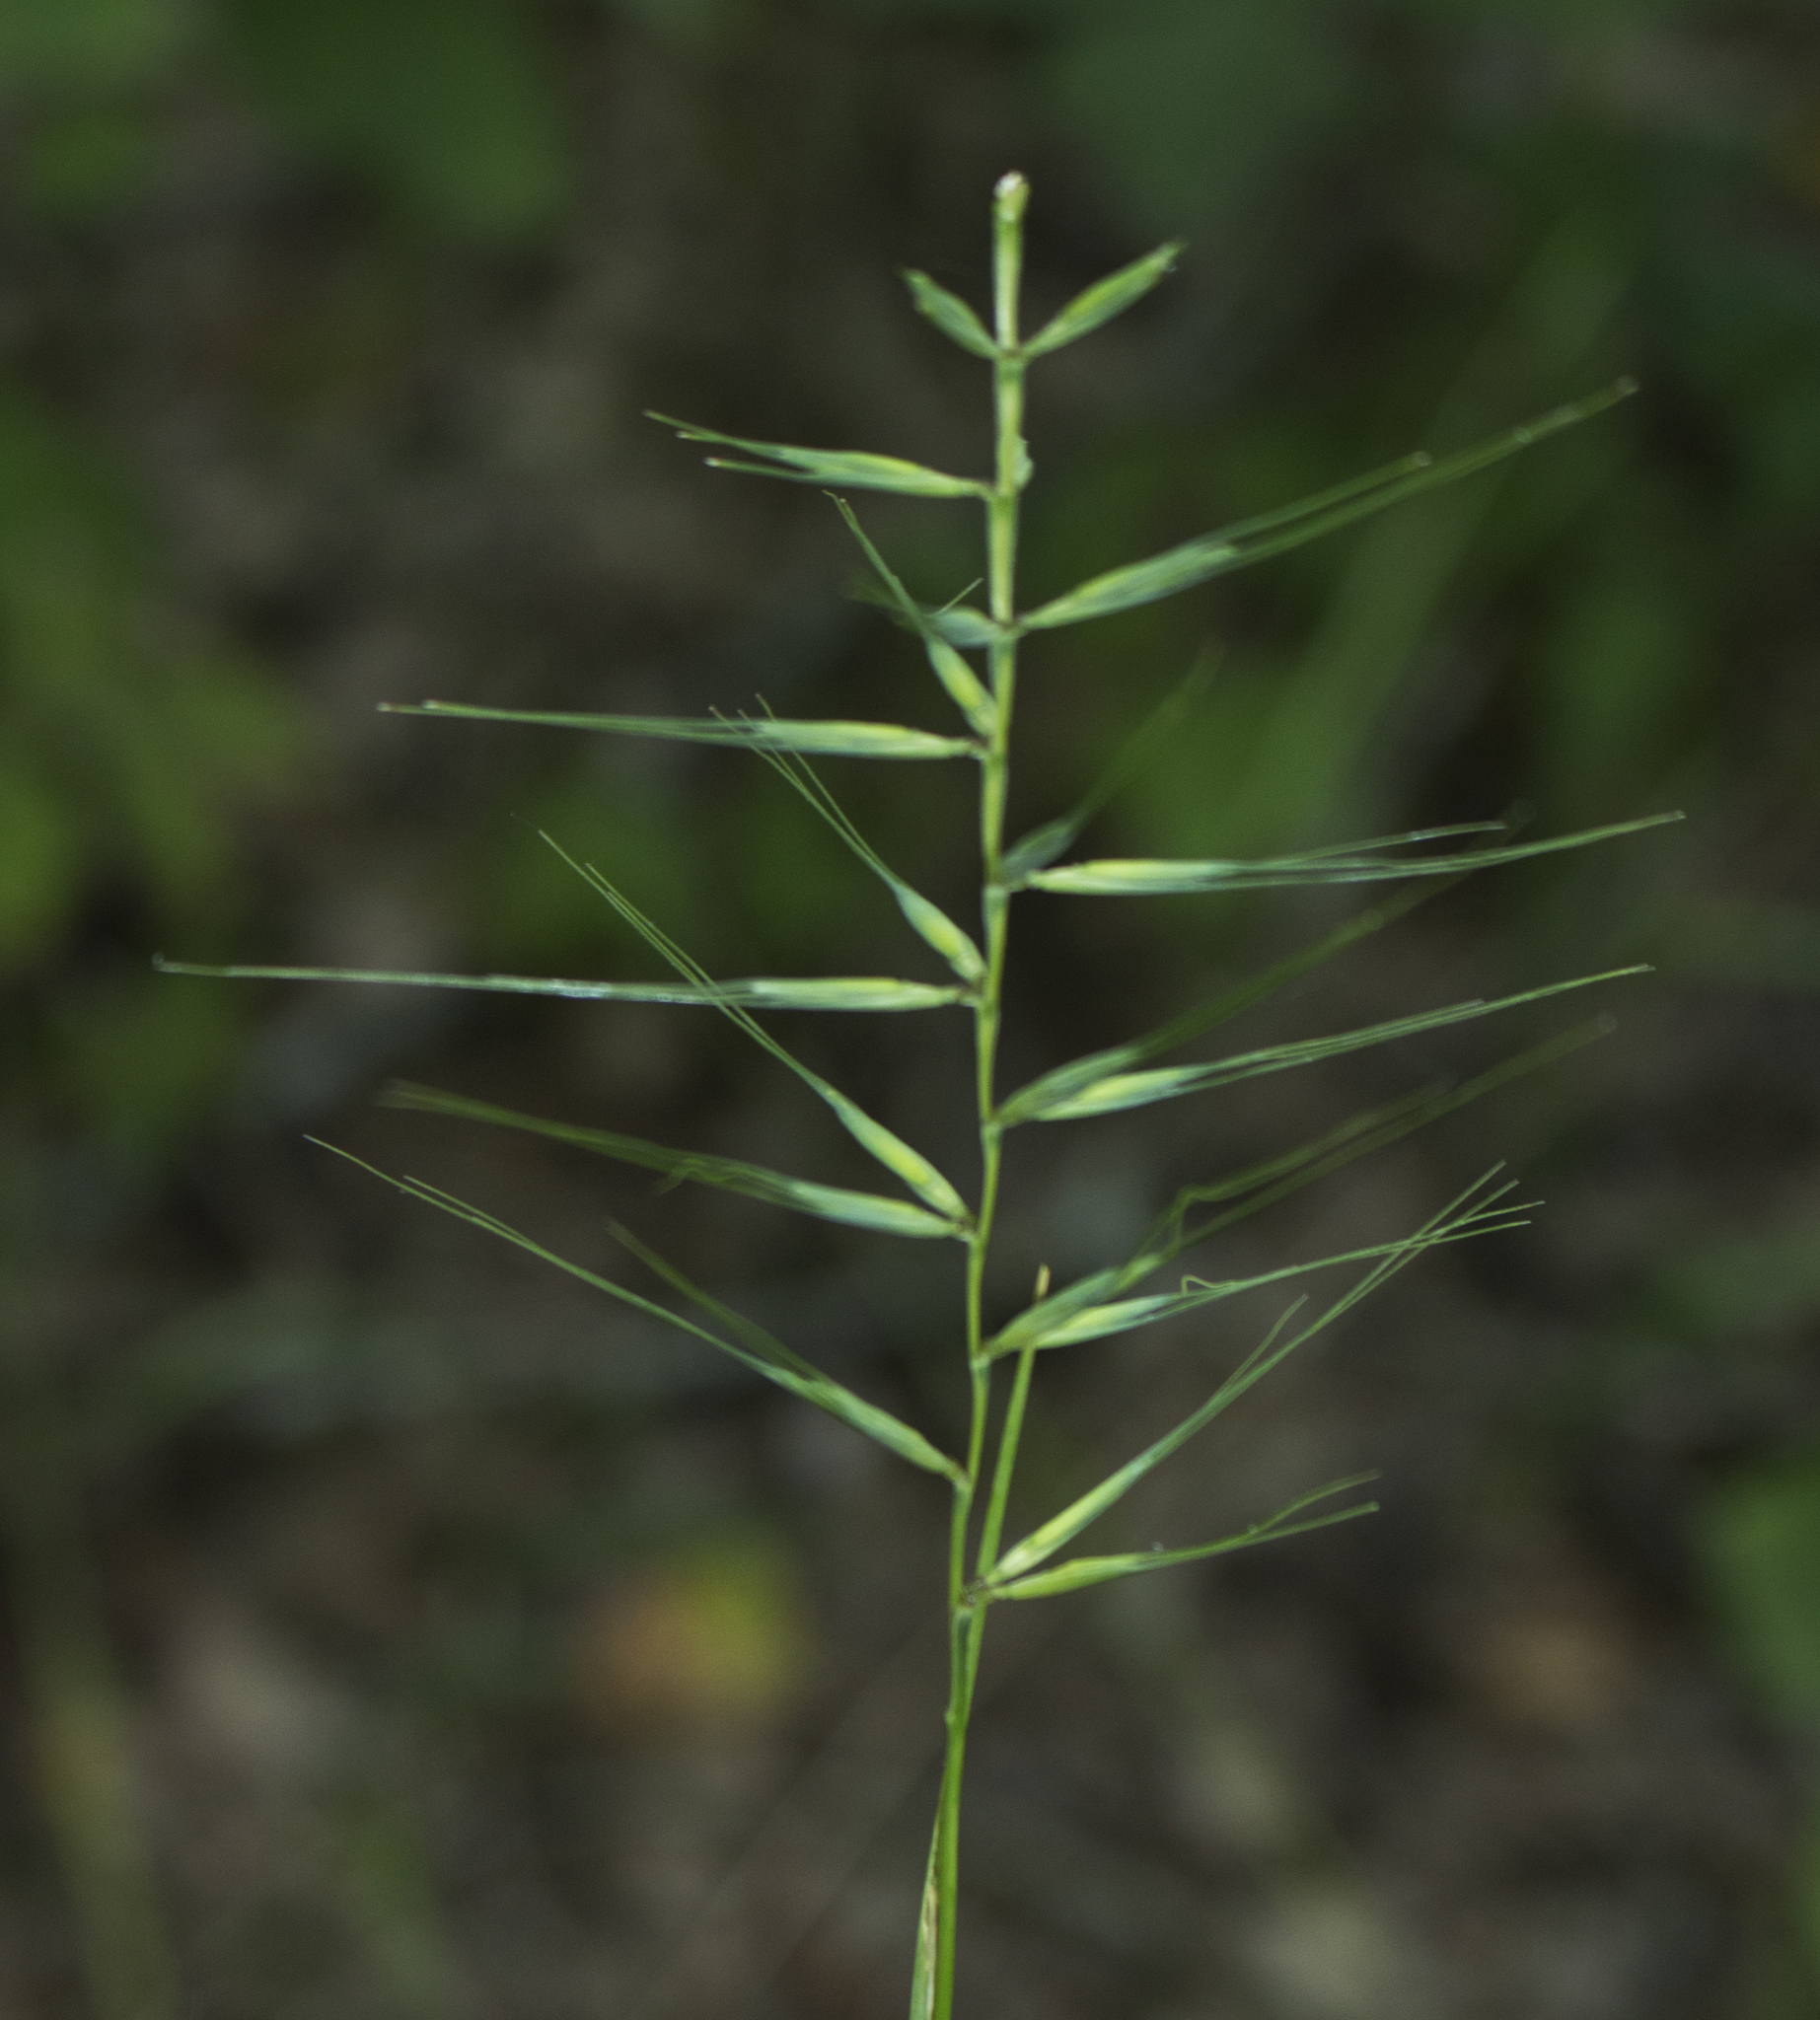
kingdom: Plantae
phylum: Tracheophyta
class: Liliopsida
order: Poales
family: Poaceae
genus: Elymus
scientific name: Elymus hystrix
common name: Bottlebrush grass
